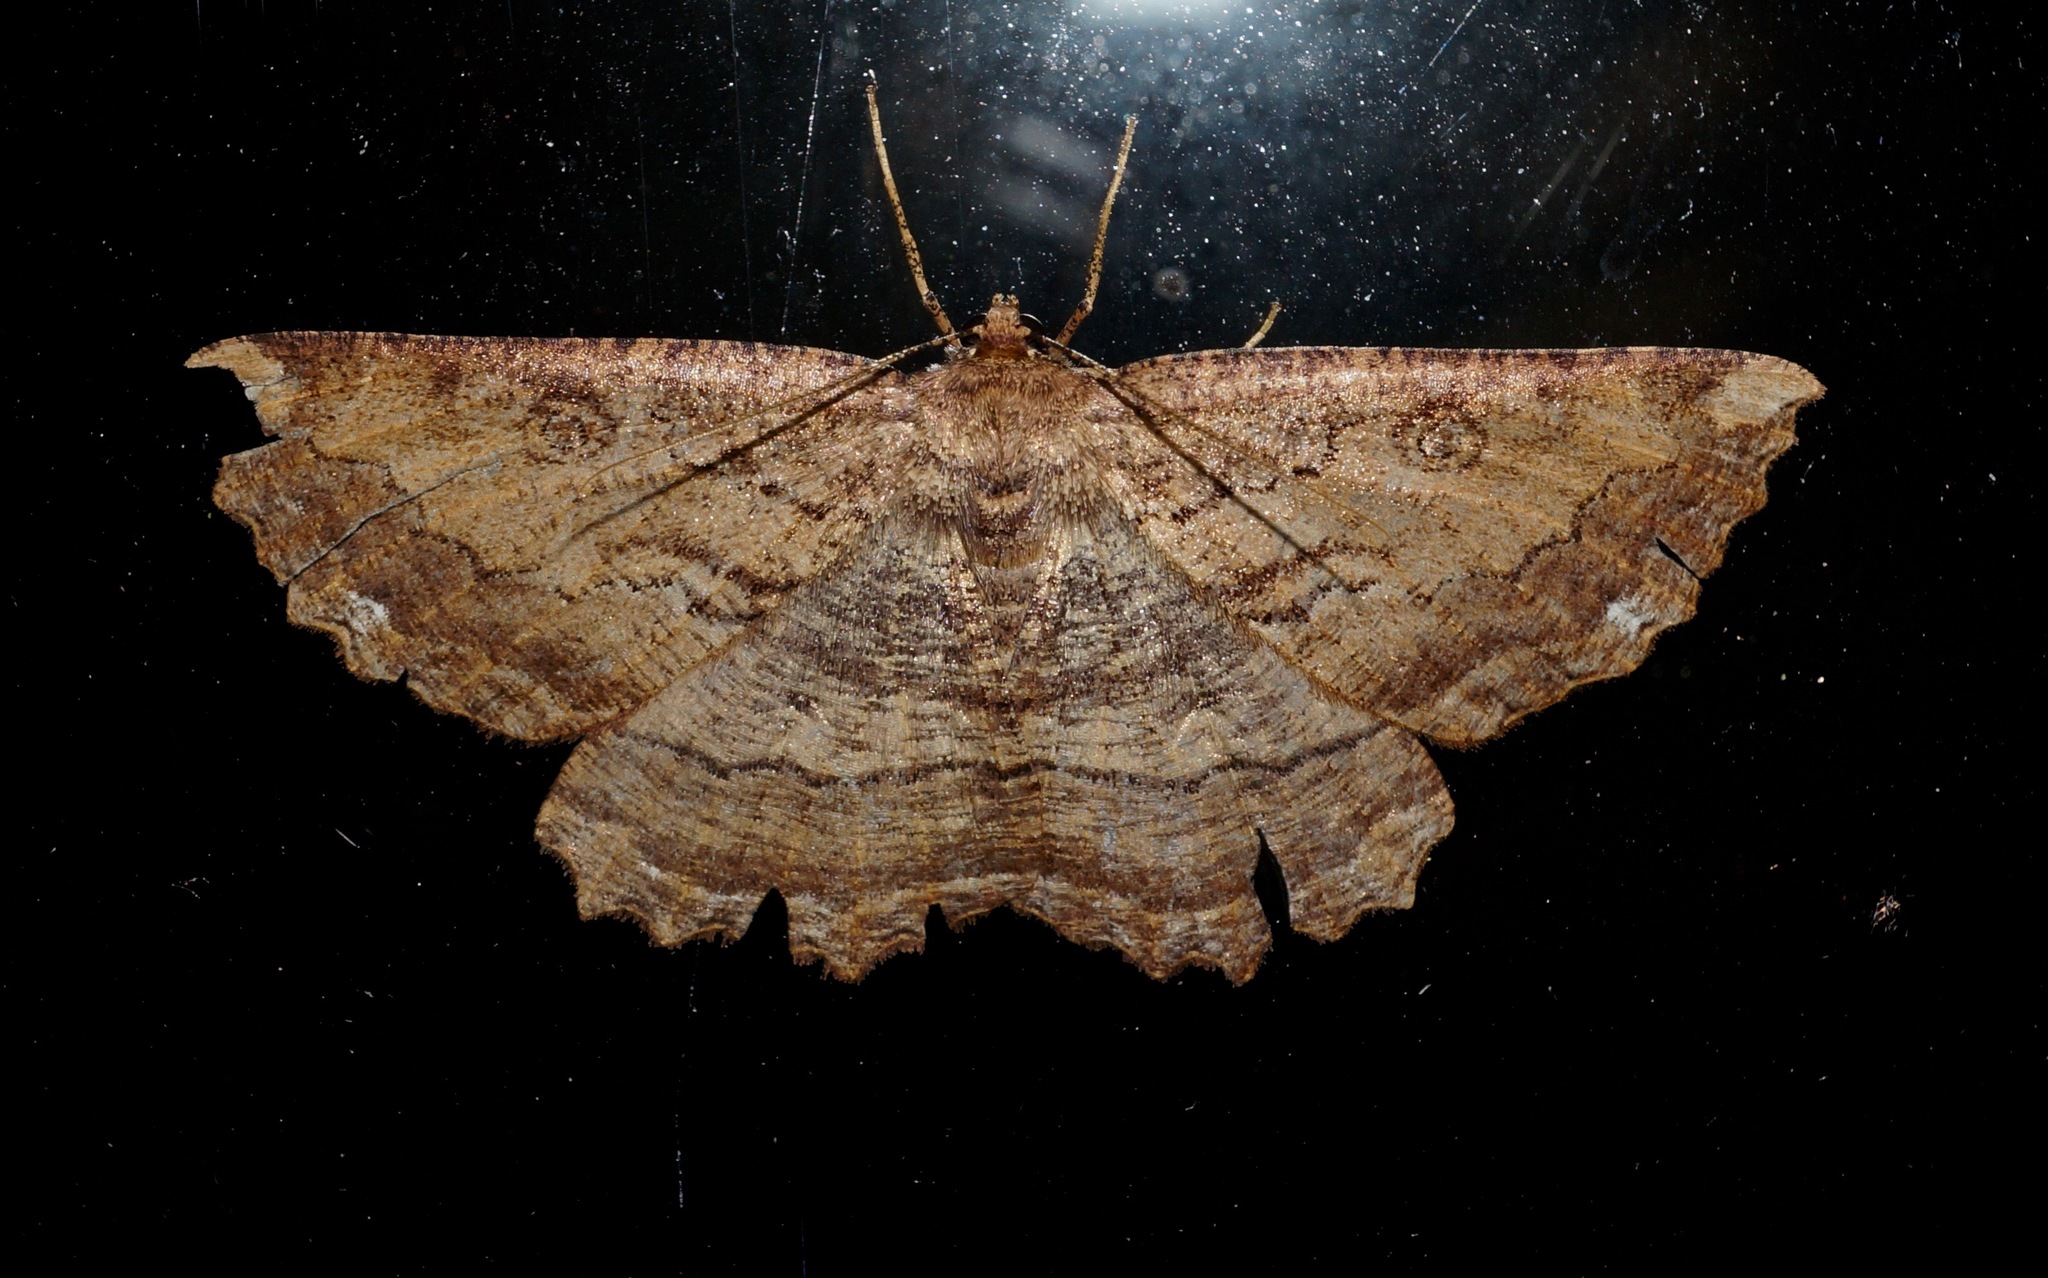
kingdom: Animalia
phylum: Arthropoda
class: Insecta
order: Lepidoptera
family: Geometridae
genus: Gellonia
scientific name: Gellonia dejectaria
